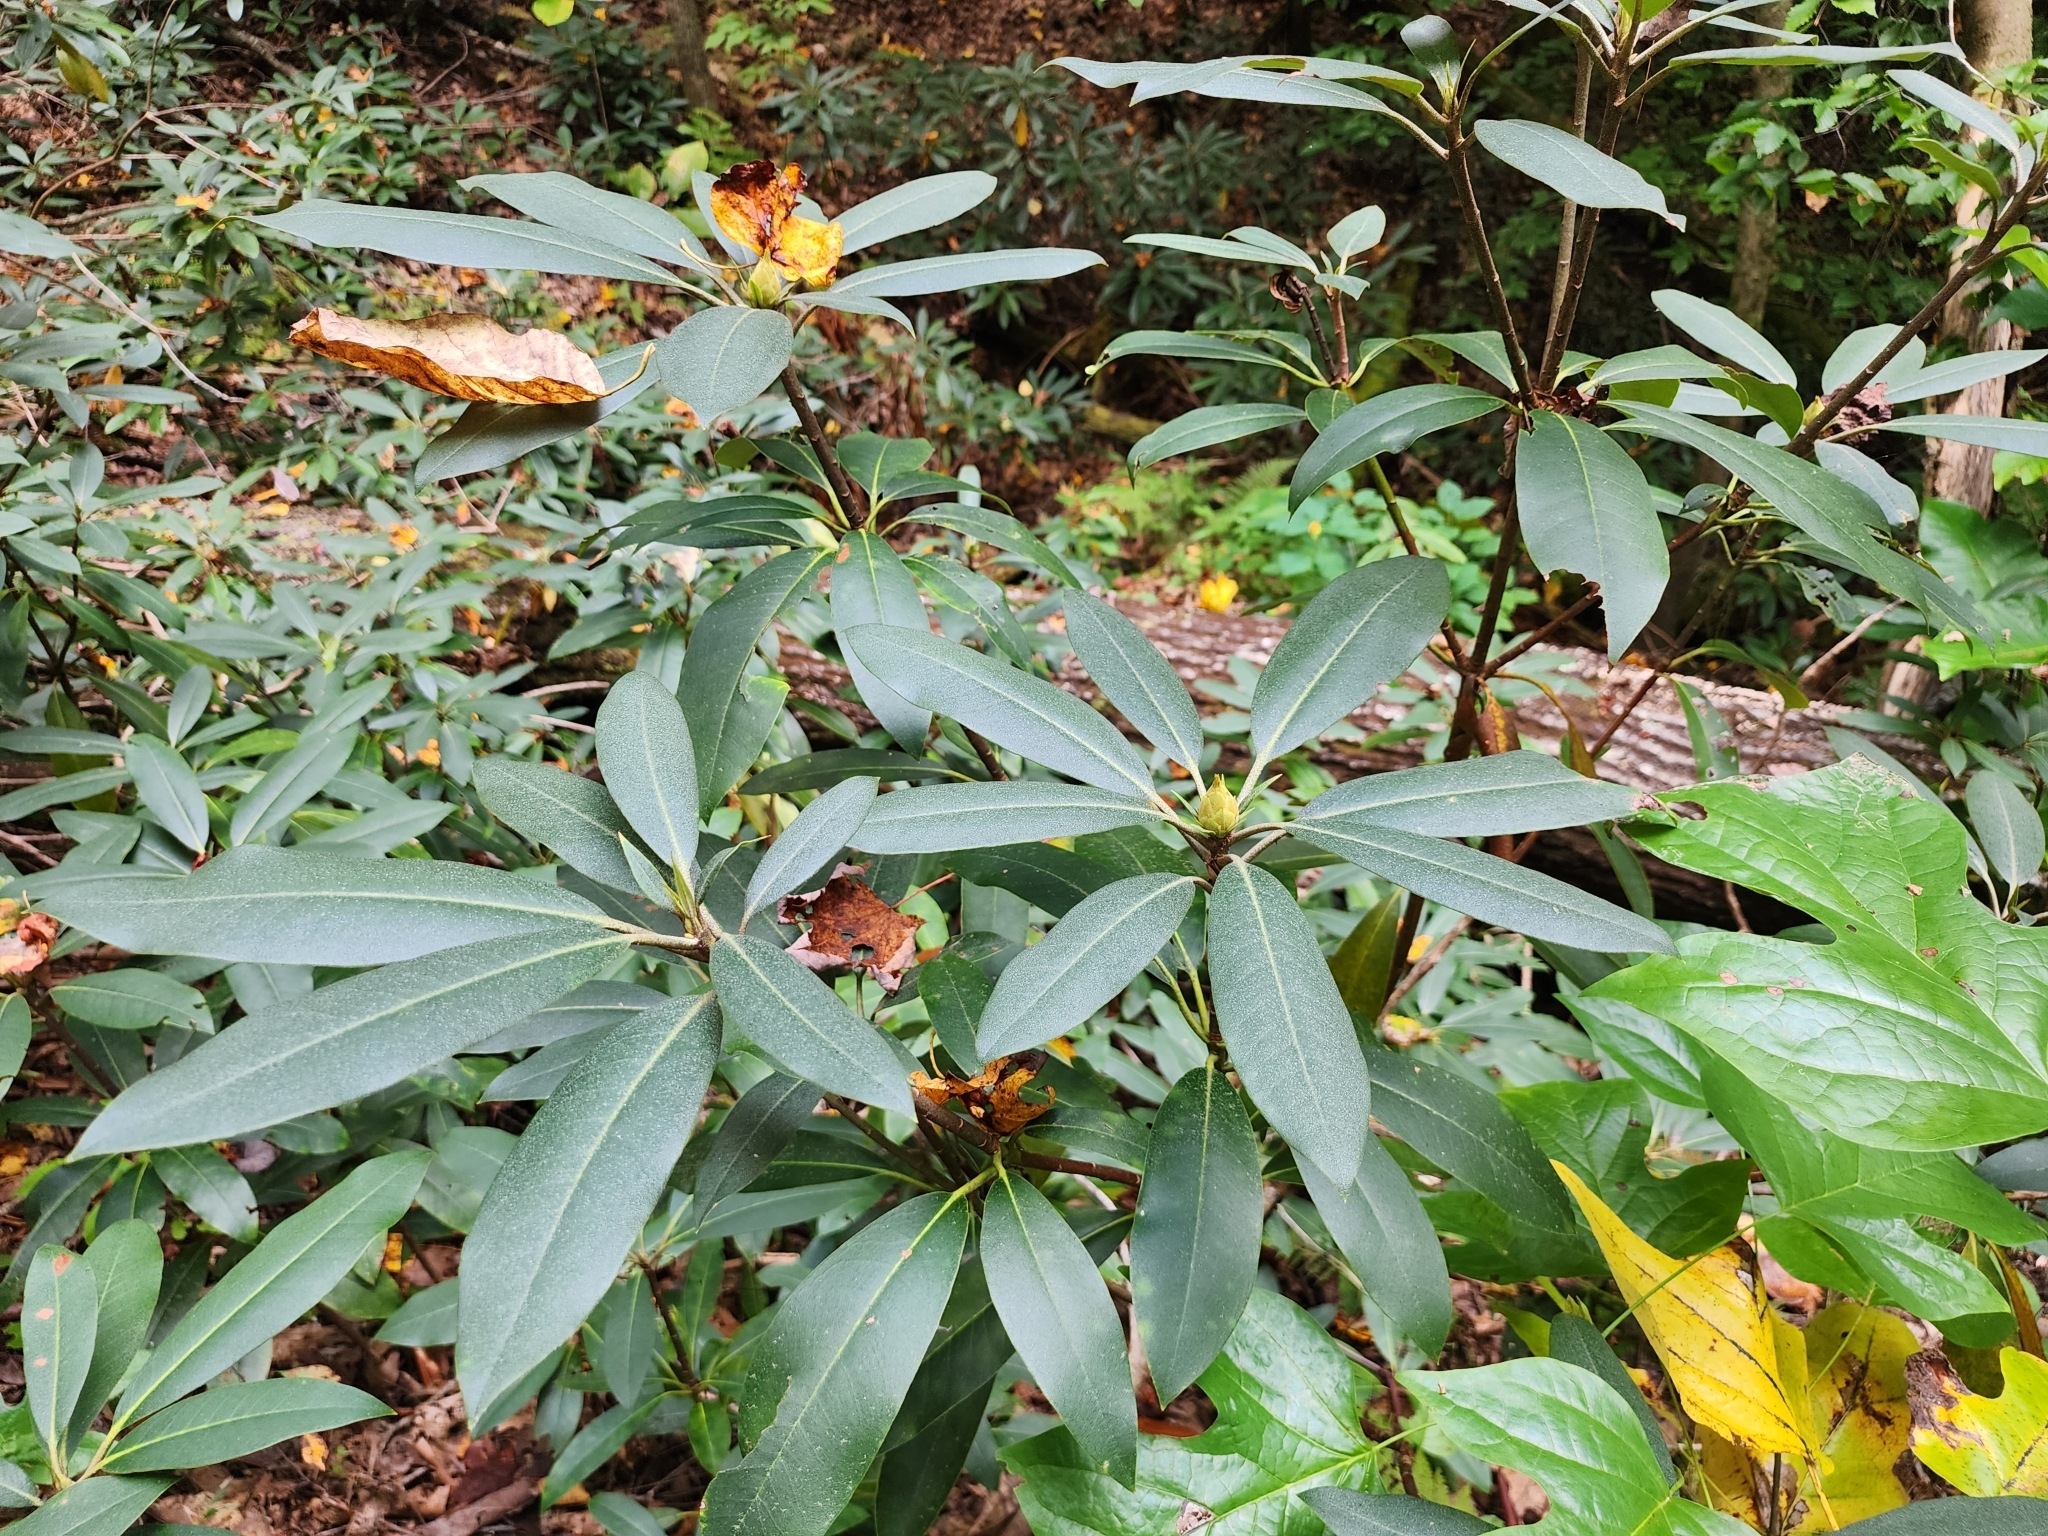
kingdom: Plantae
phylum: Tracheophyta
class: Magnoliopsida
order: Ericales
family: Ericaceae
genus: Rhododendron
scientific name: Rhododendron maximum
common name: Great rhododendron
